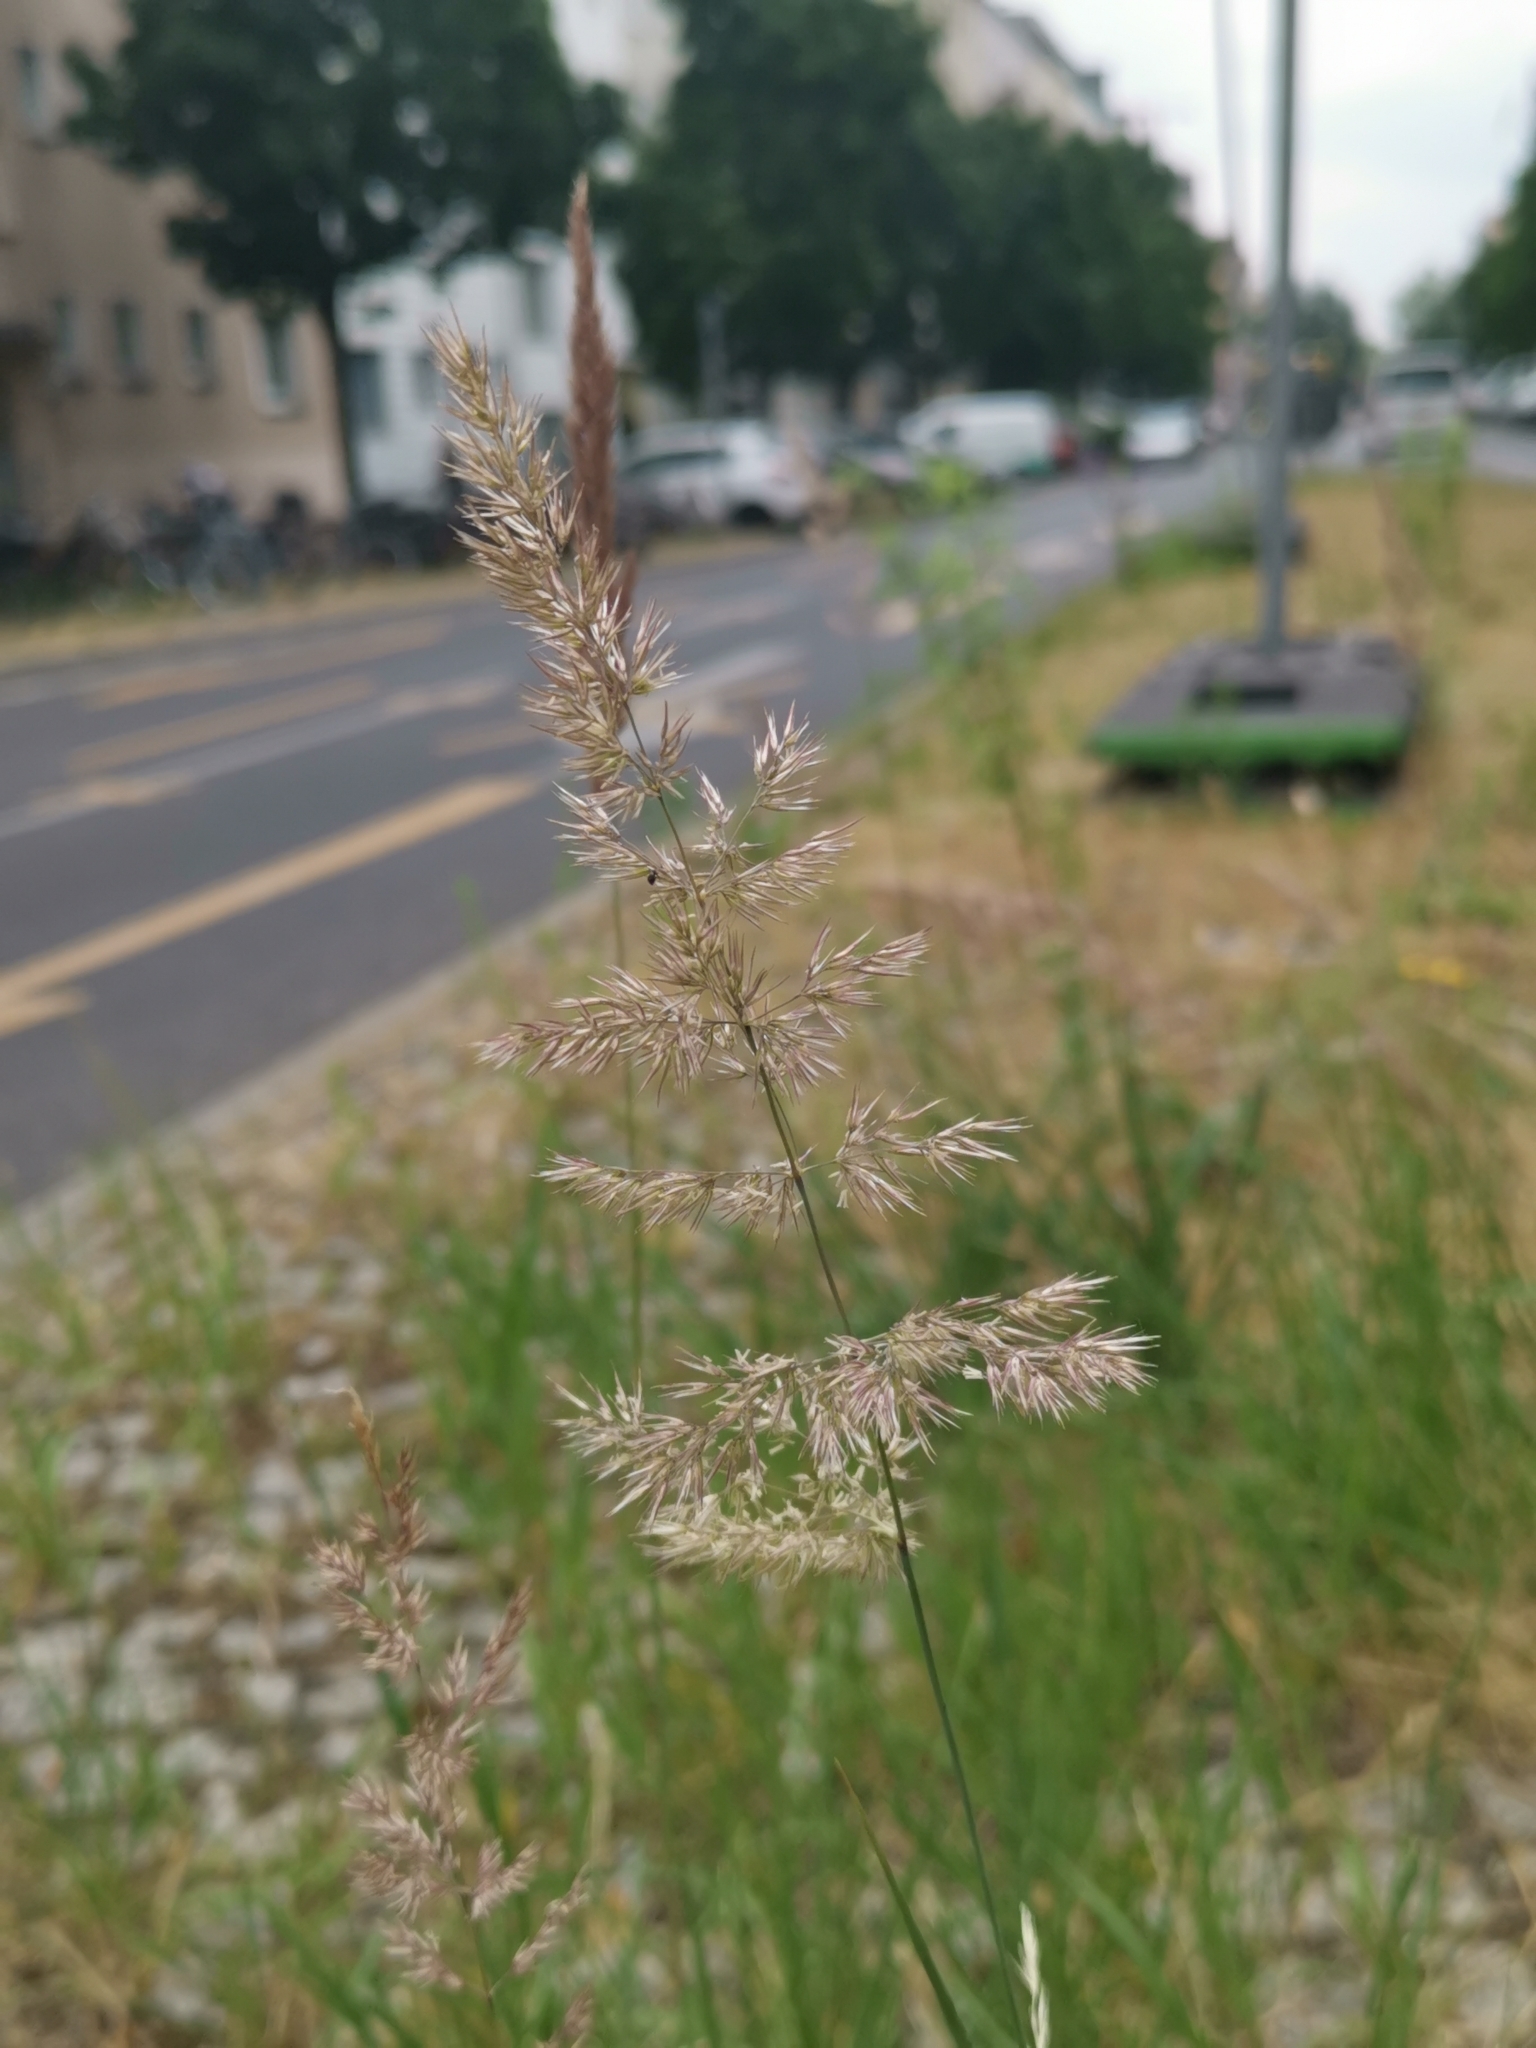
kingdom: Plantae
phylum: Tracheophyta
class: Liliopsida
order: Poales
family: Poaceae
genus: Calamagrostis
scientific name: Calamagrostis epigejos
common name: Wood small-reed
